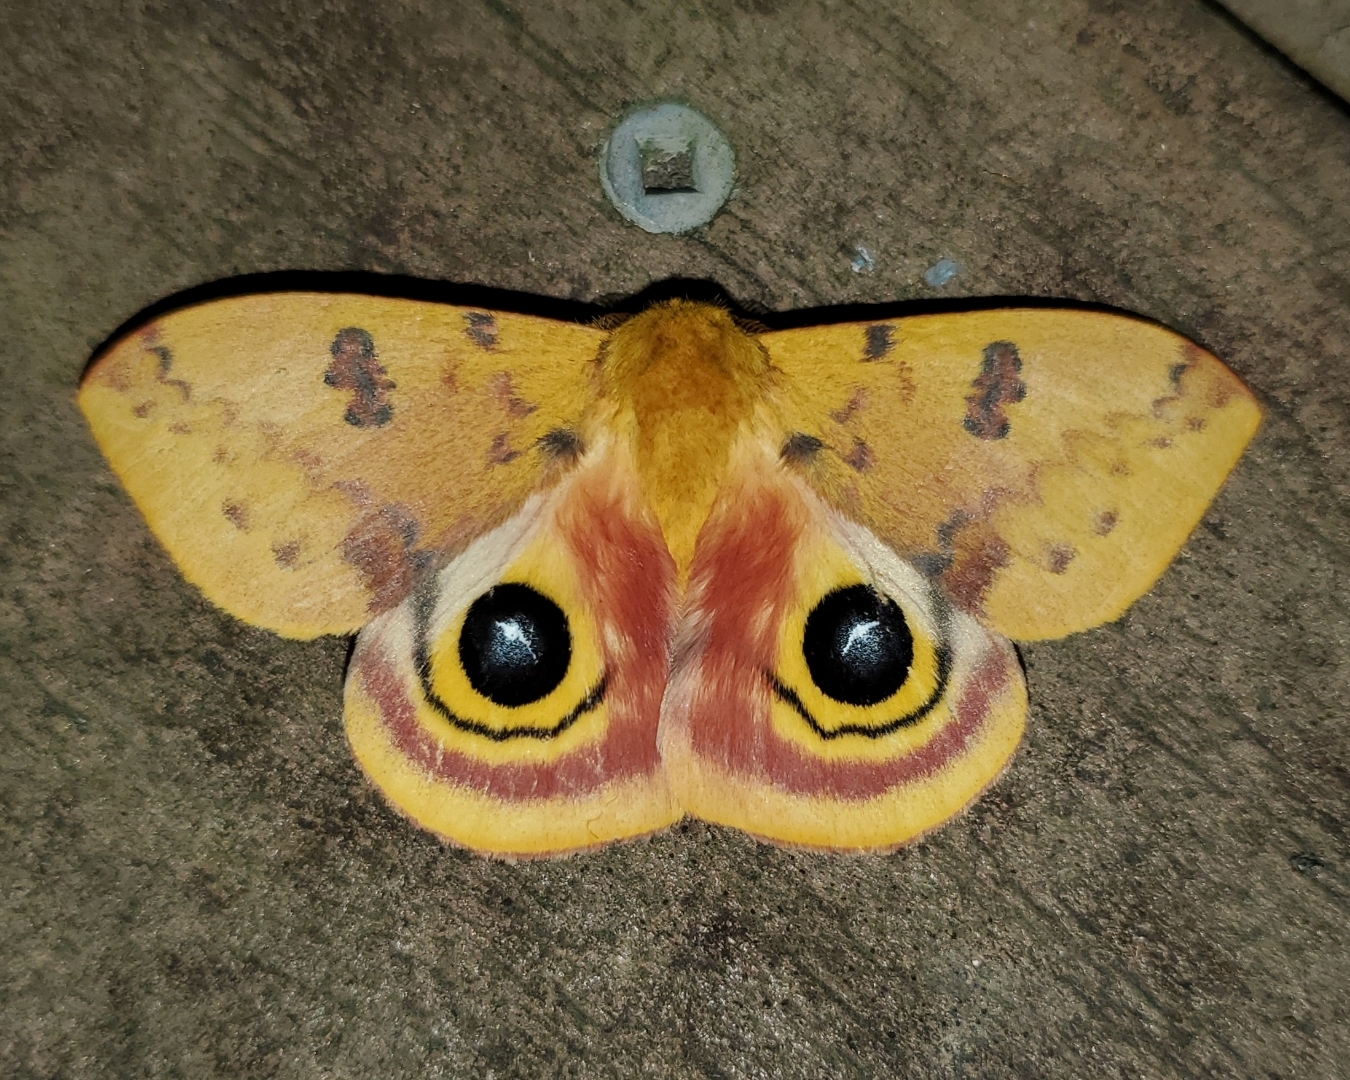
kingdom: Animalia
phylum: Arthropoda
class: Insecta
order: Lepidoptera
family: Saturniidae
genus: Automeris
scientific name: Automeris io
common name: Io moth
